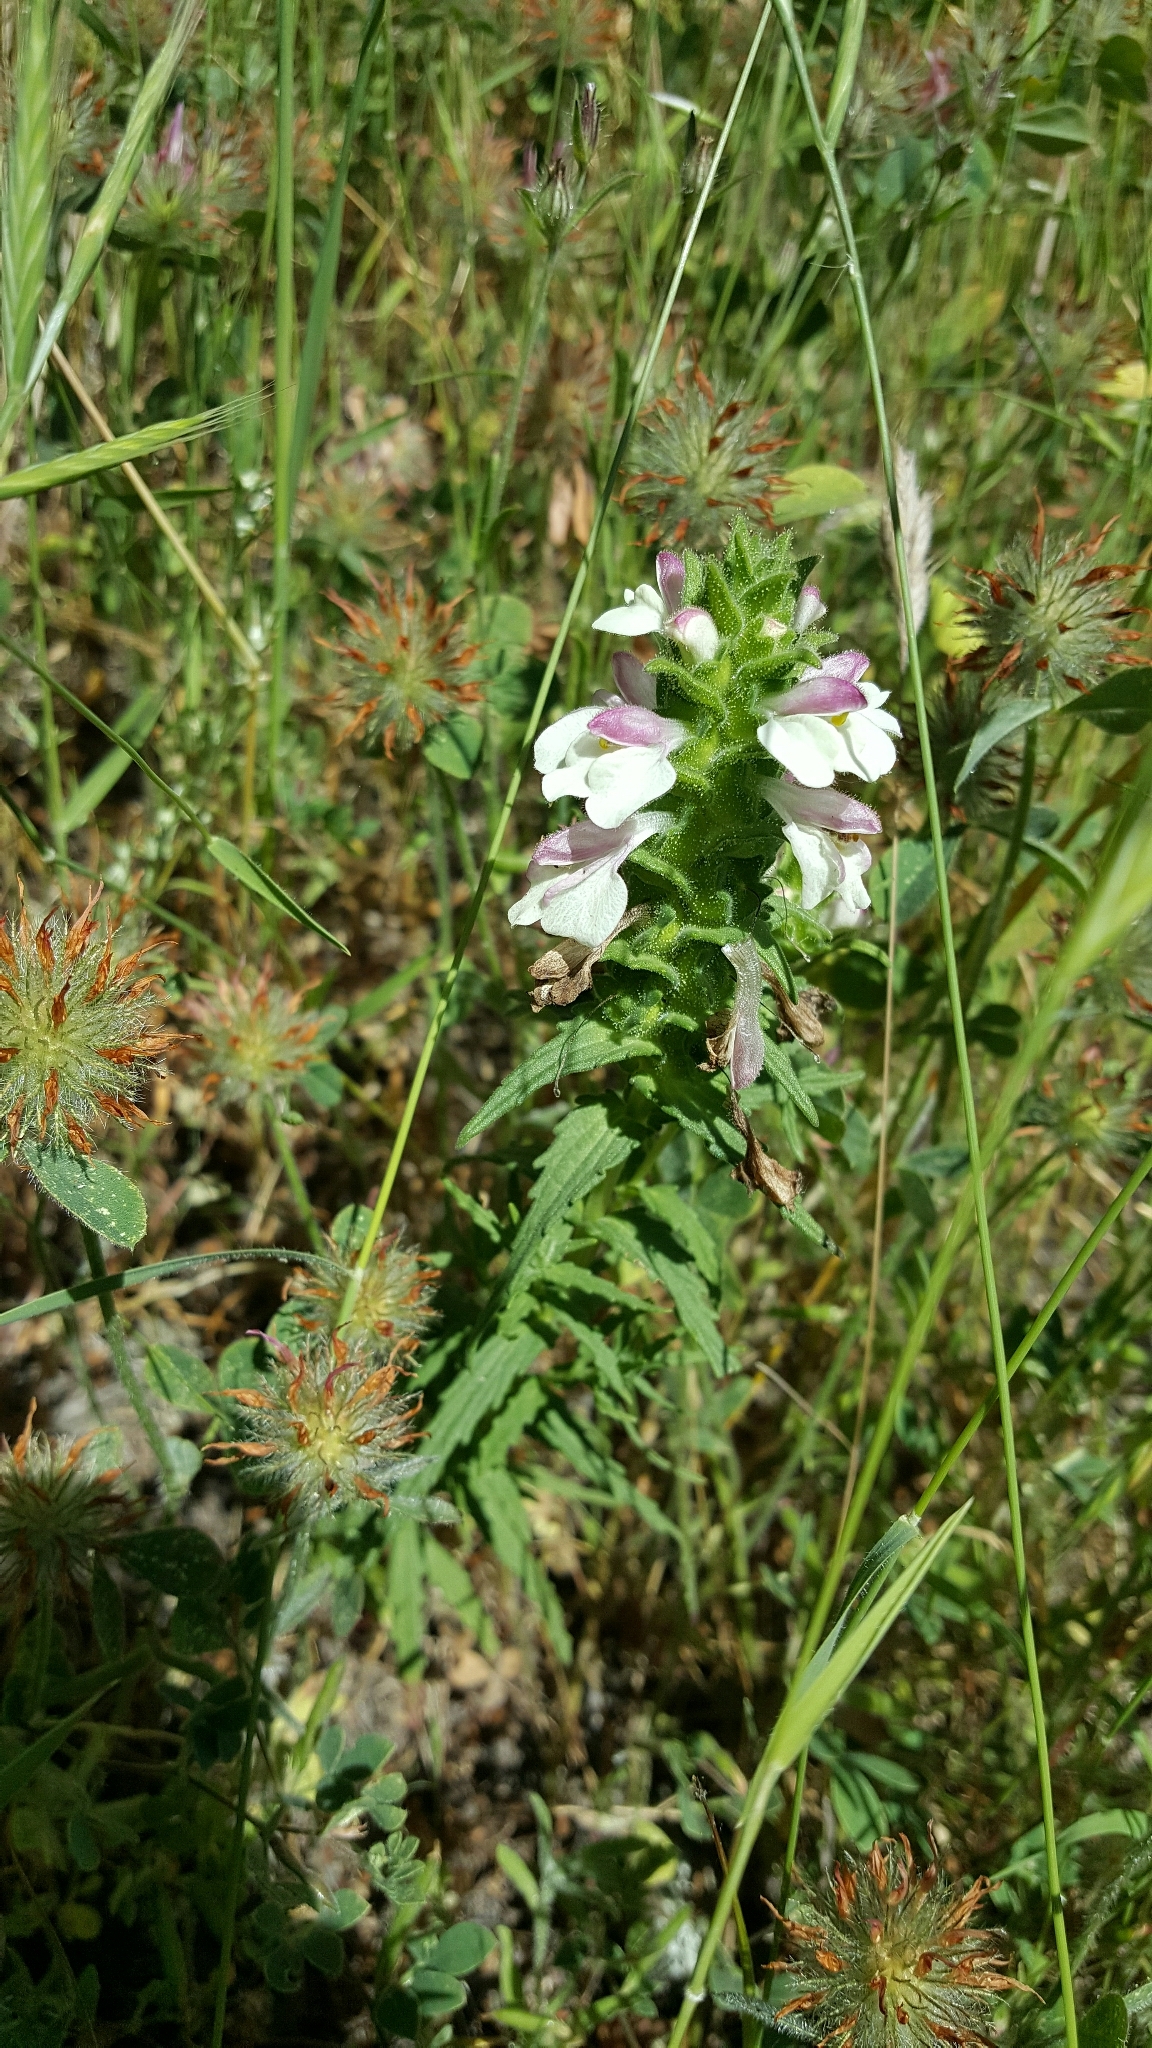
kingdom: Plantae
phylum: Tracheophyta
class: Magnoliopsida
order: Lamiales
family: Orobanchaceae
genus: Bellardia
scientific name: Bellardia trixago
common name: Mediterranean lineseed
